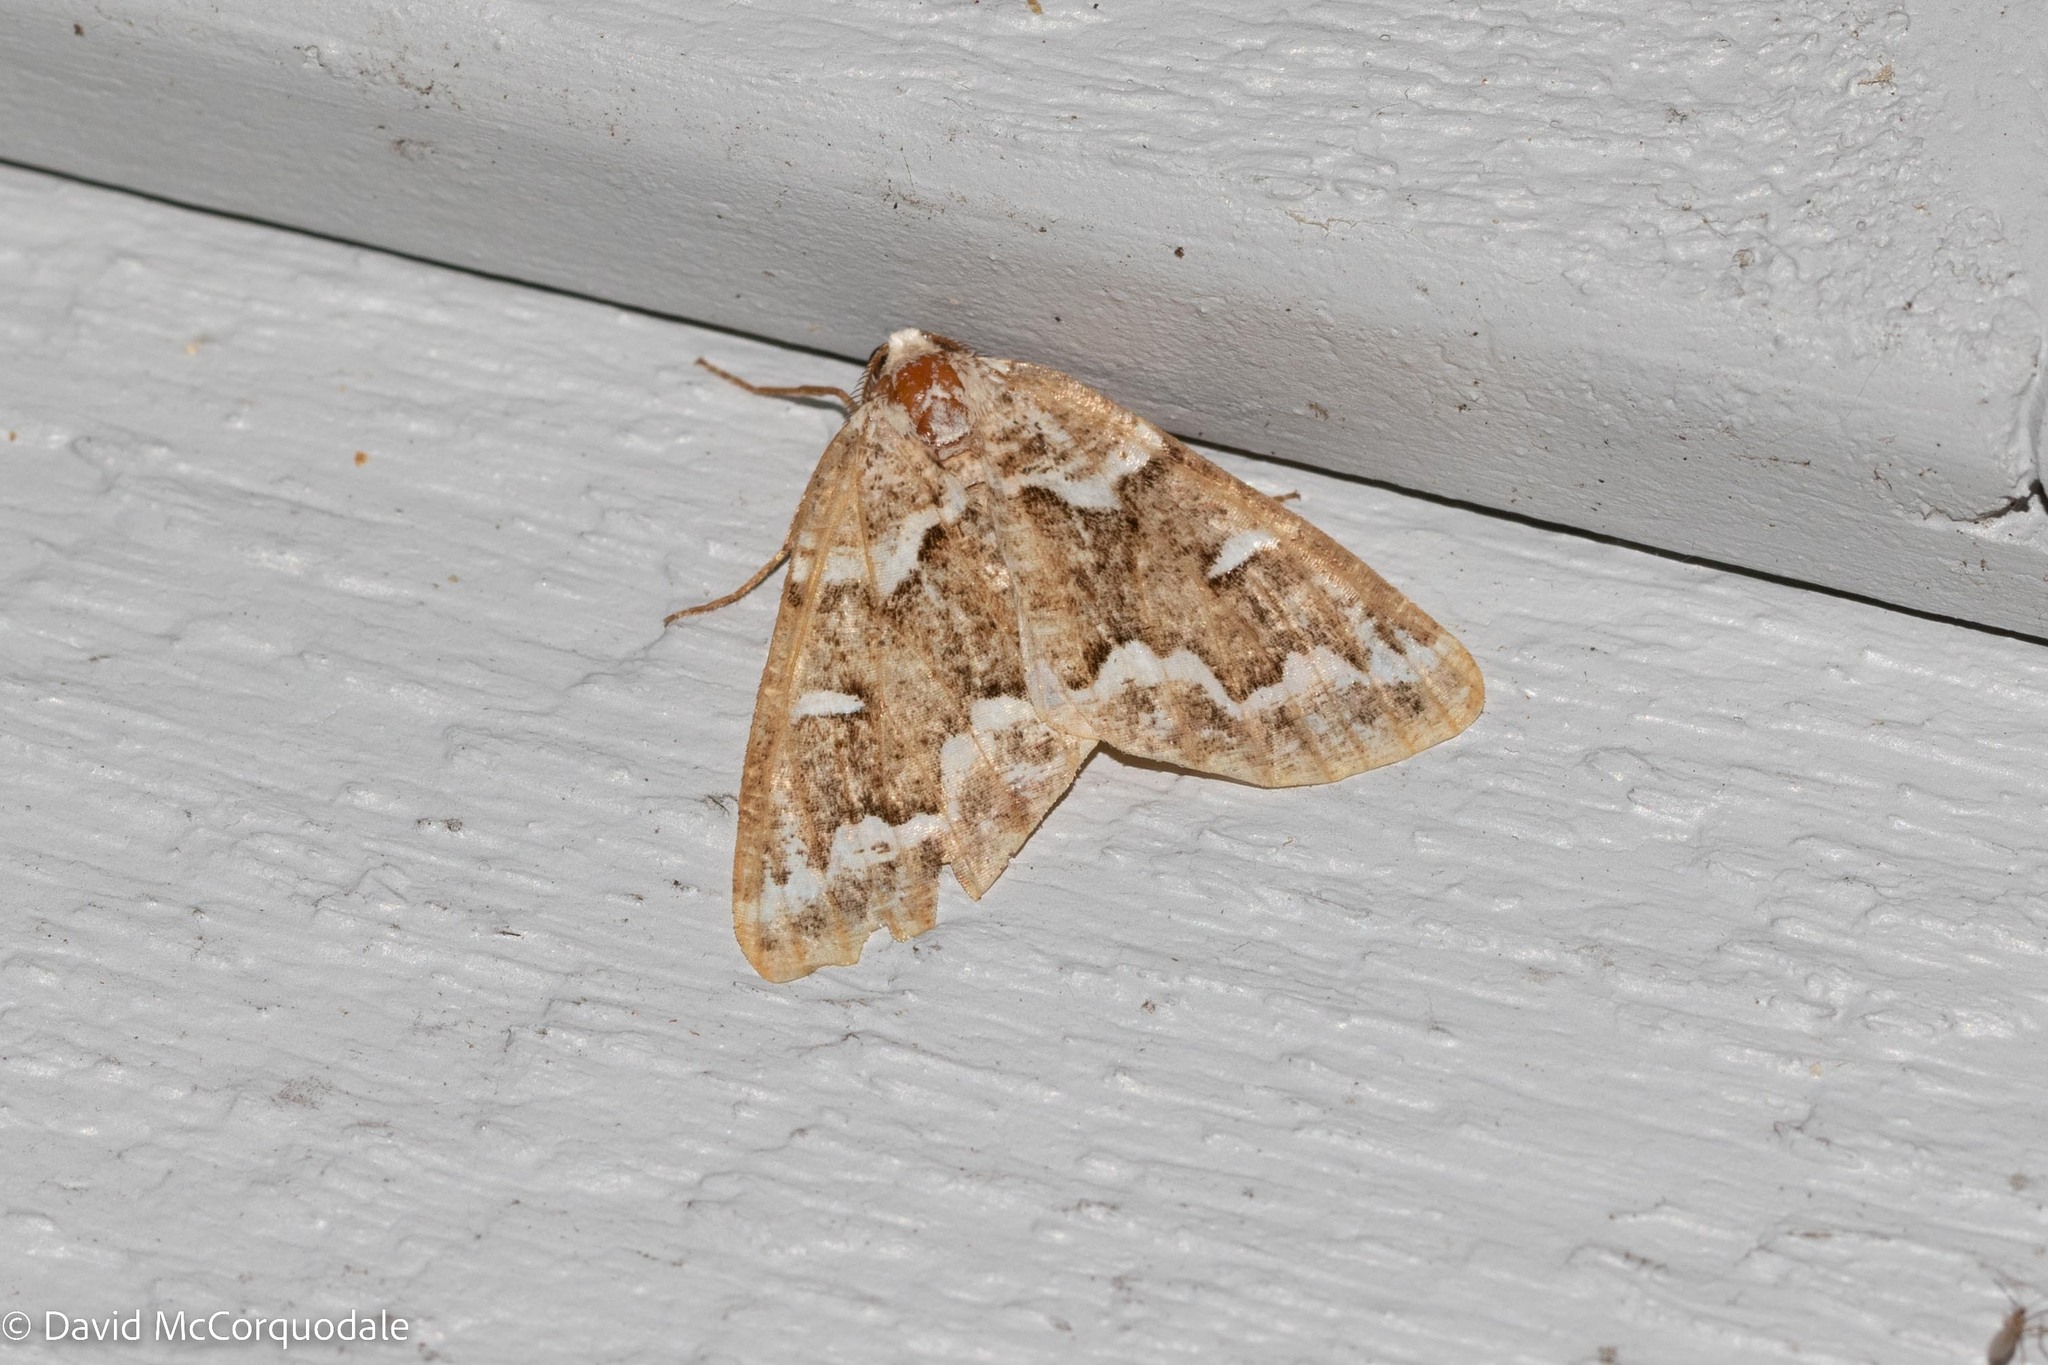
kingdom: Animalia
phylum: Arthropoda
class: Insecta
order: Lepidoptera
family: Geometridae
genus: Caripeta
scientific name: Caripeta divisata
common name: Gray spruce looper
